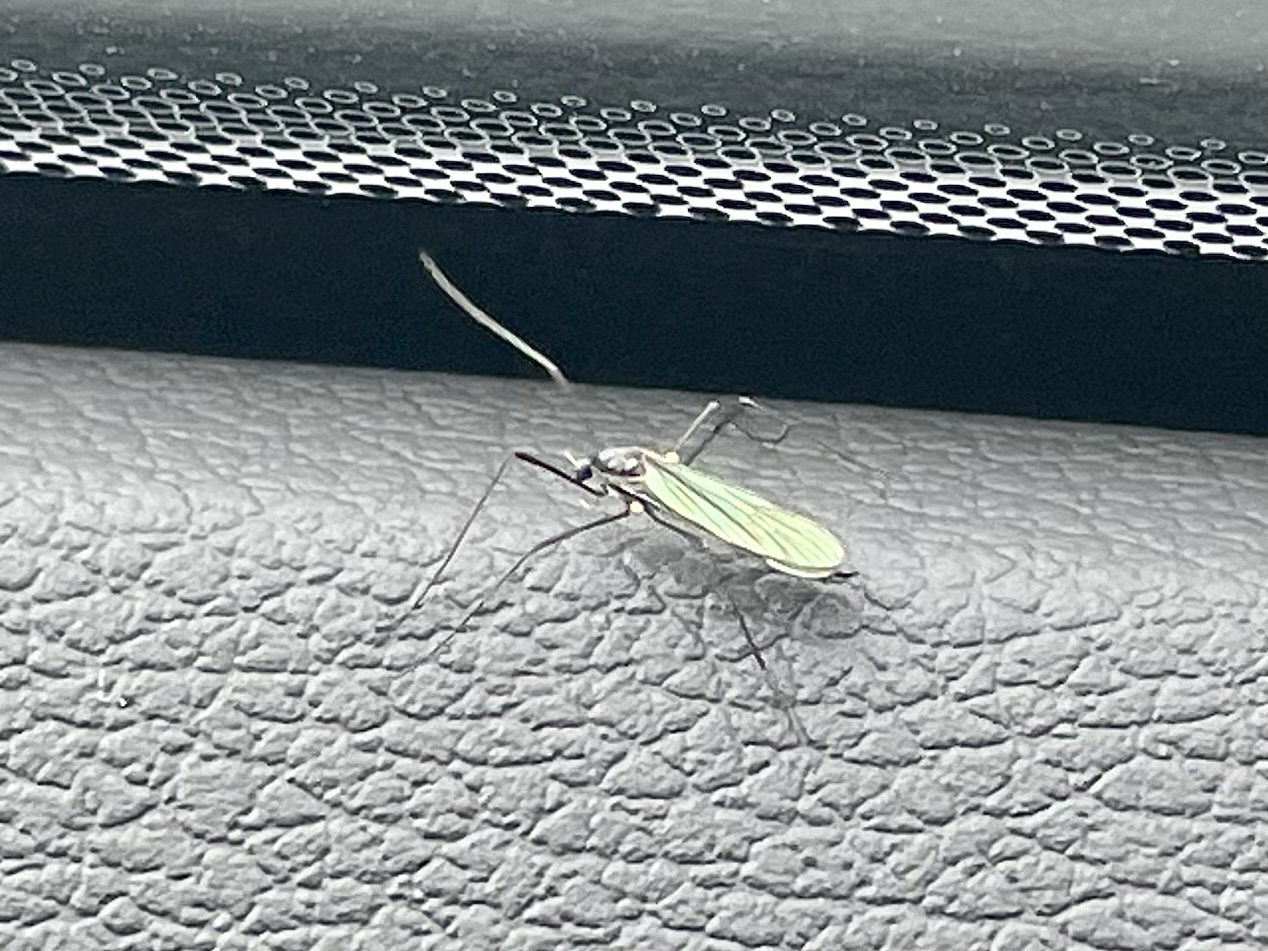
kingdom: Animalia
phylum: Arthropoda
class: Insecta
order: Diptera
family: Limoniidae
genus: Gnophomyia
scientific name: Gnophomyia tristissima
